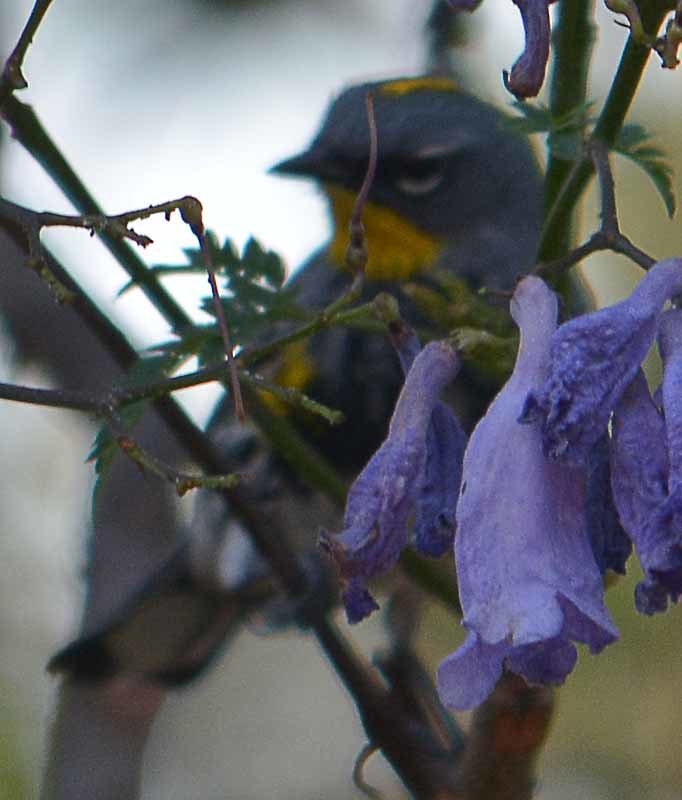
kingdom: Animalia
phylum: Chordata
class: Aves
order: Passeriformes
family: Parulidae
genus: Setophaga
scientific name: Setophaga auduboni
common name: Audubon's warbler
